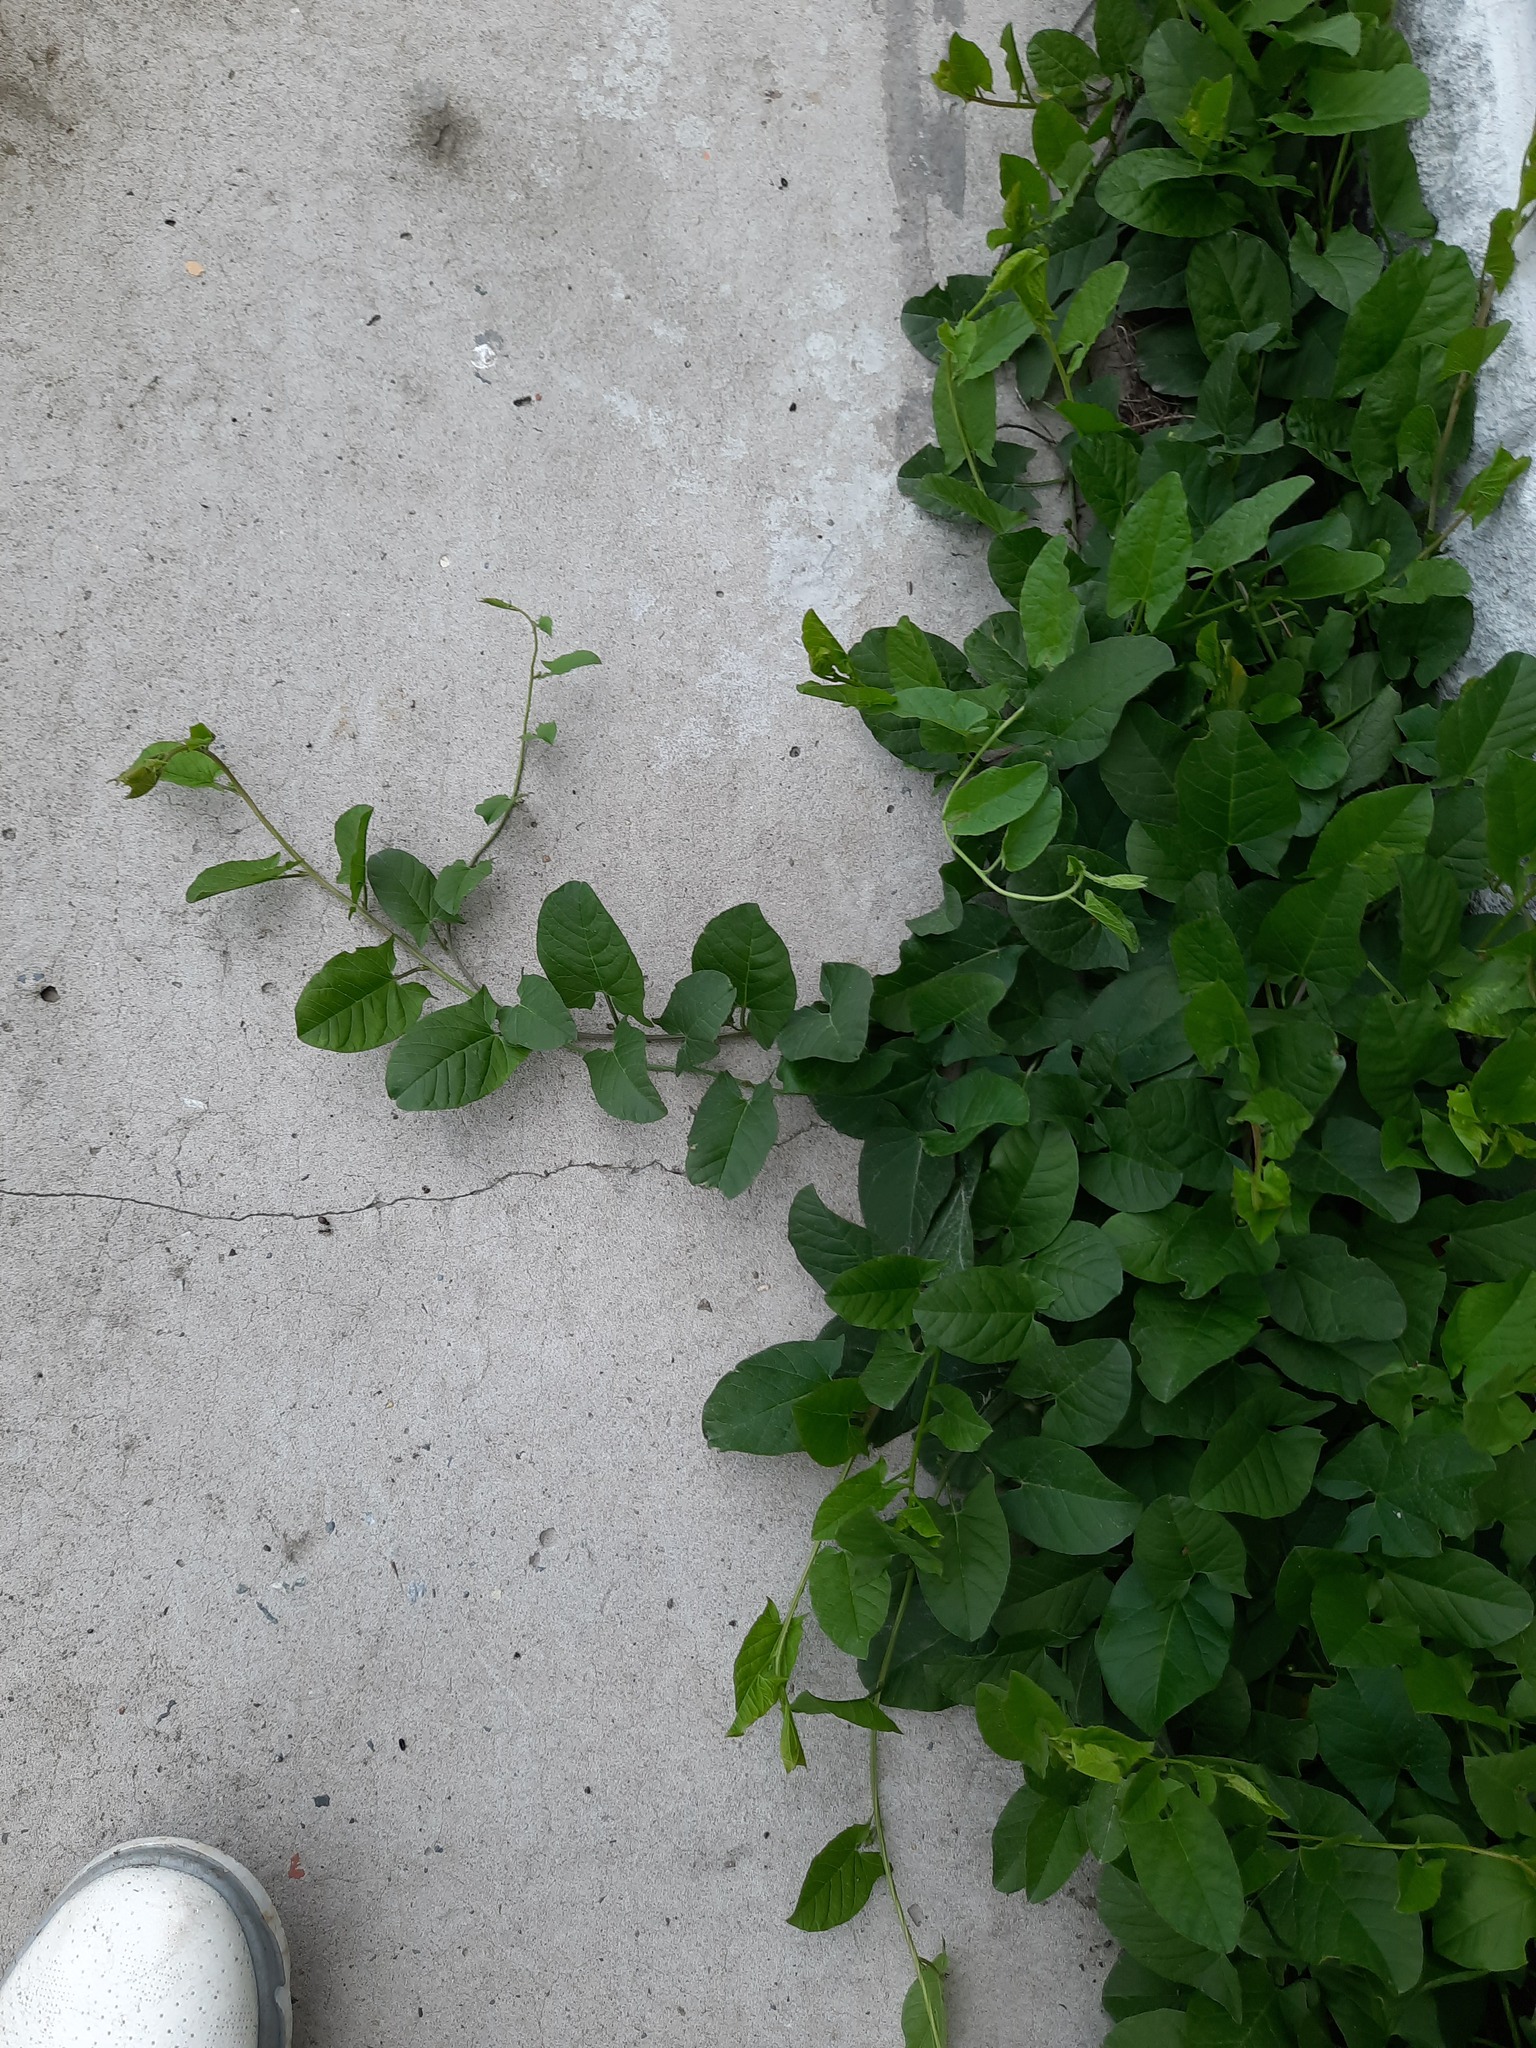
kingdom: Plantae
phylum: Tracheophyta
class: Magnoliopsida
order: Solanales
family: Convolvulaceae
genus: Convolvulus
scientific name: Convolvulus arvensis
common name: Field bindweed
